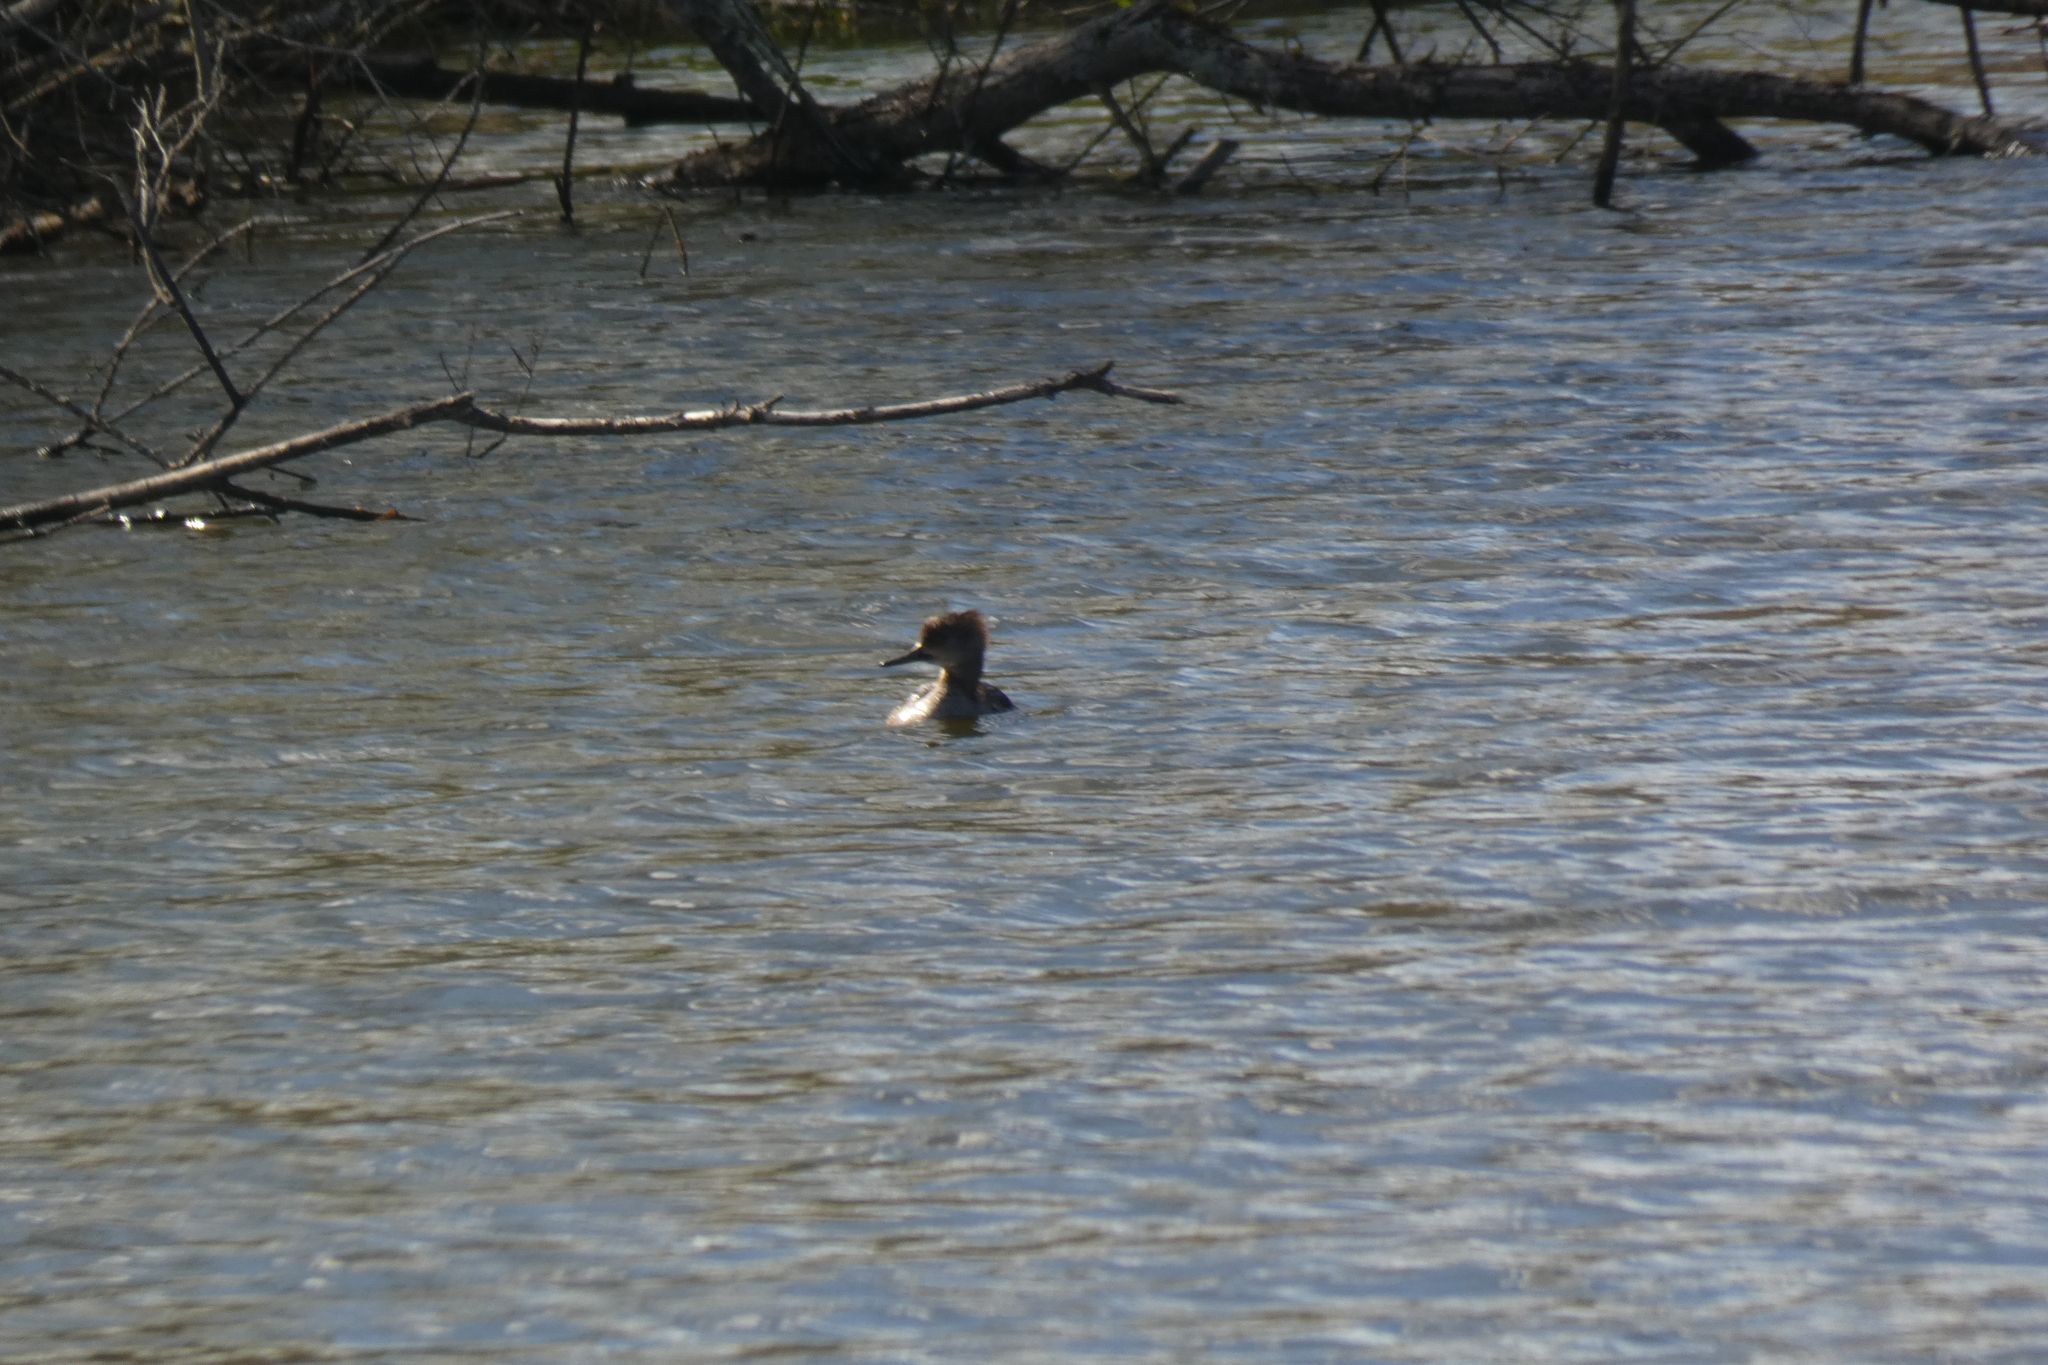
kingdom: Animalia
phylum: Chordata
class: Aves
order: Anseriformes
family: Anatidae
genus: Lophodytes
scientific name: Lophodytes cucullatus
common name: Hooded merganser
